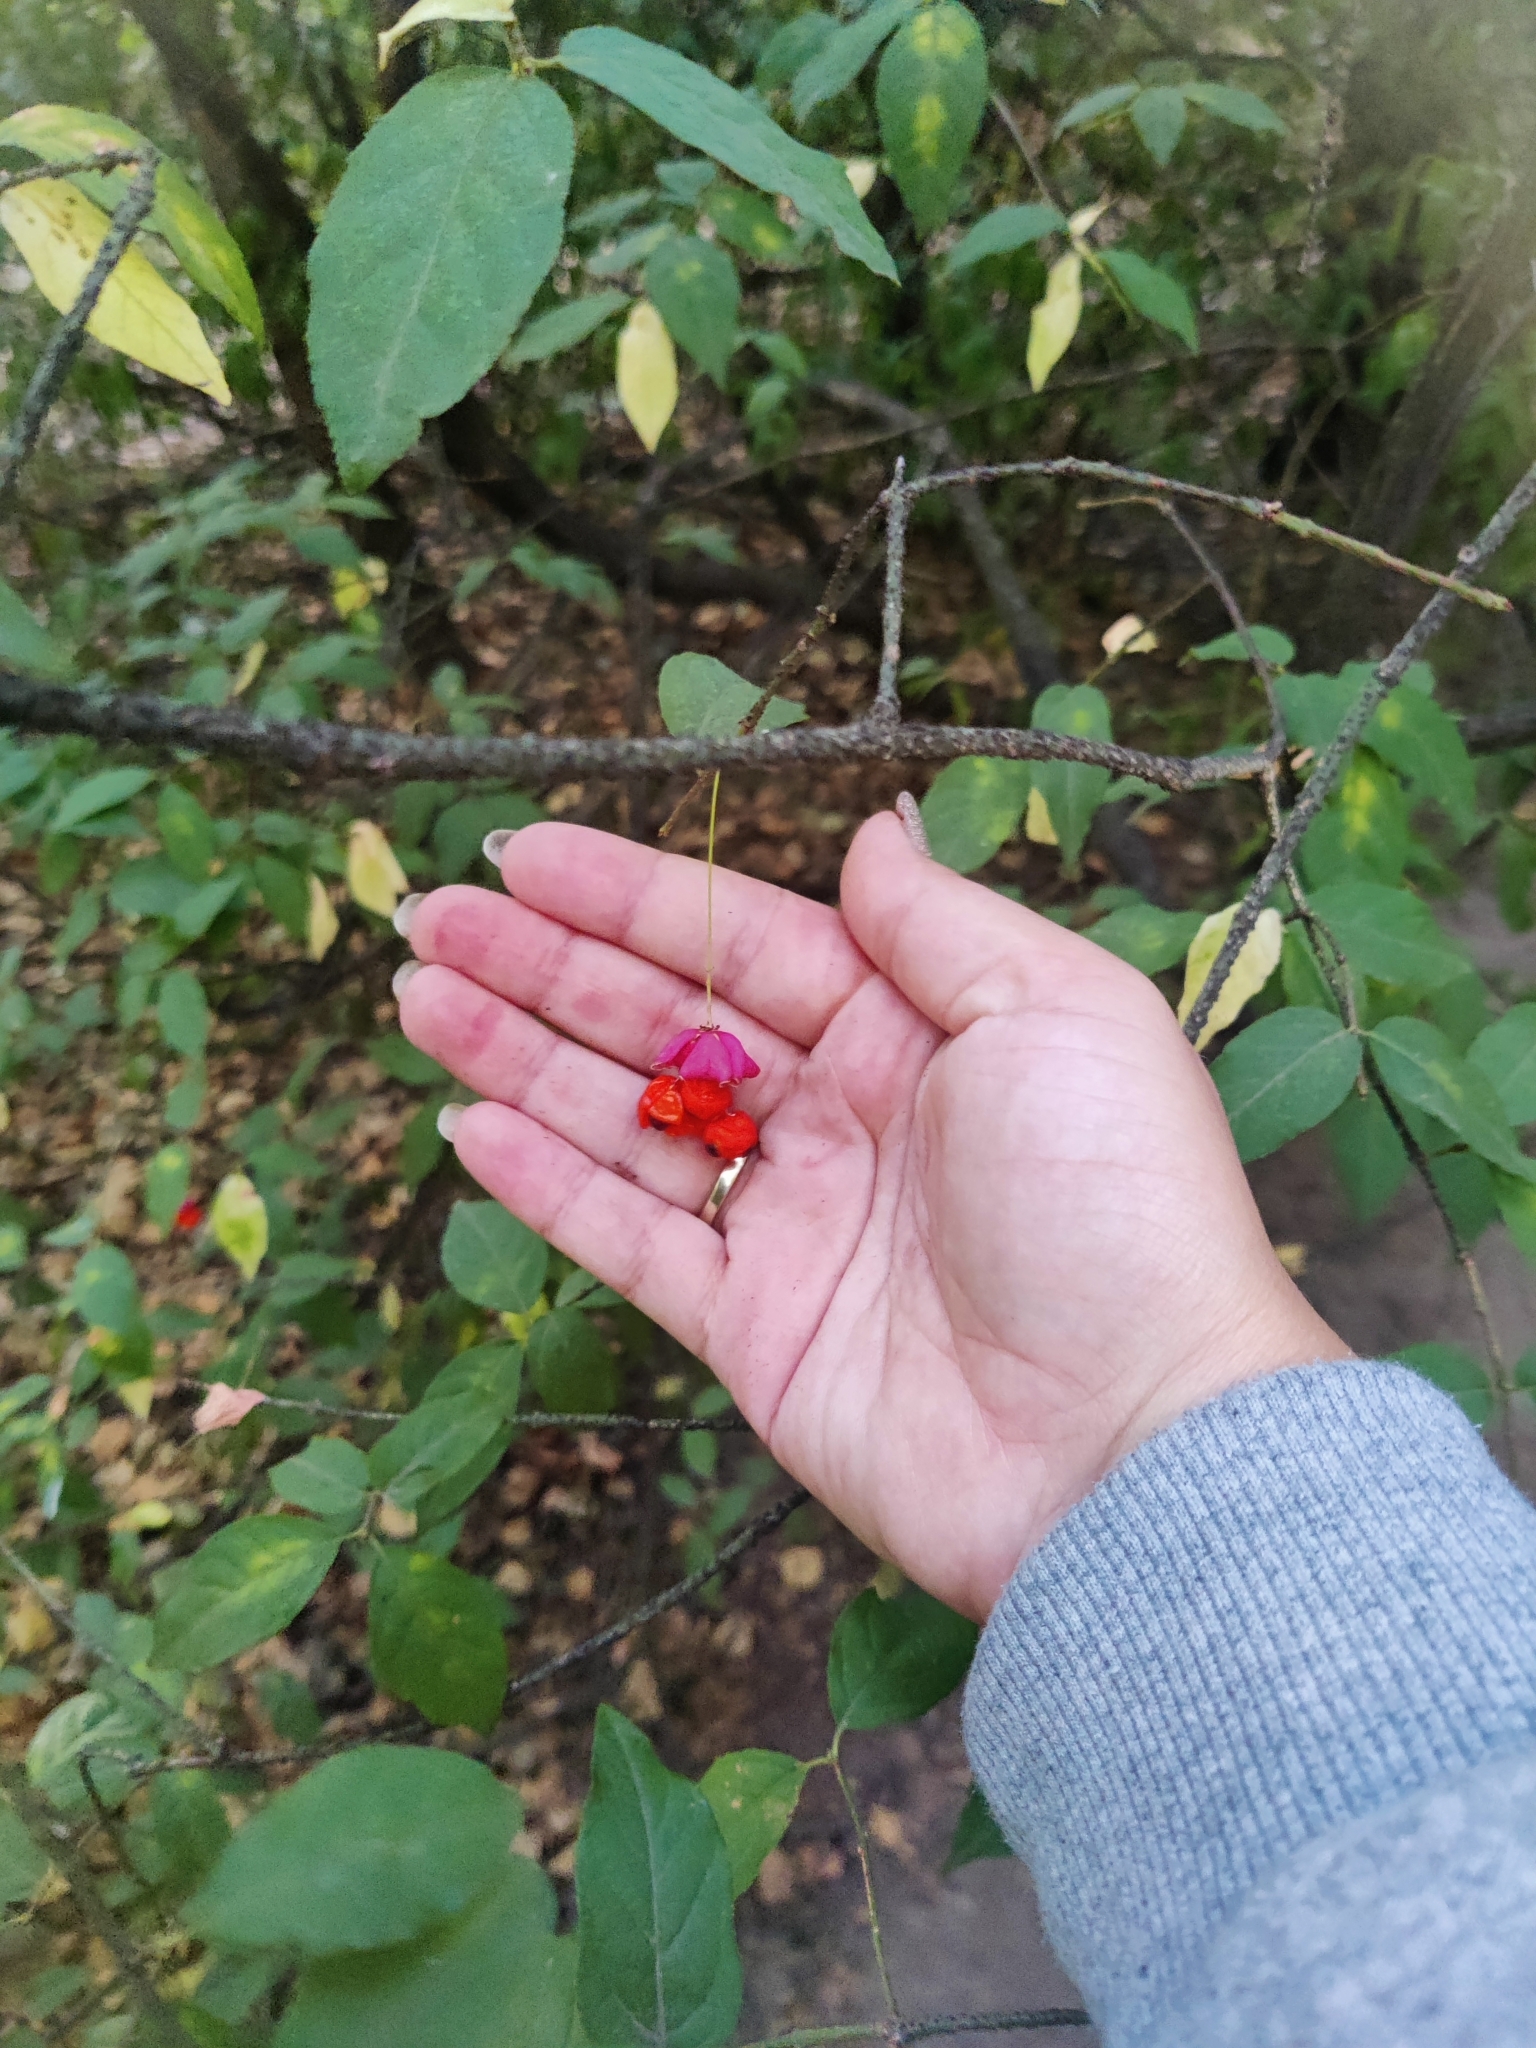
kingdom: Plantae
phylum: Tracheophyta
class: Magnoliopsida
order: Celastrales
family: Celastraceae
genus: Euonymus
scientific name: Euonymus verrucosus
